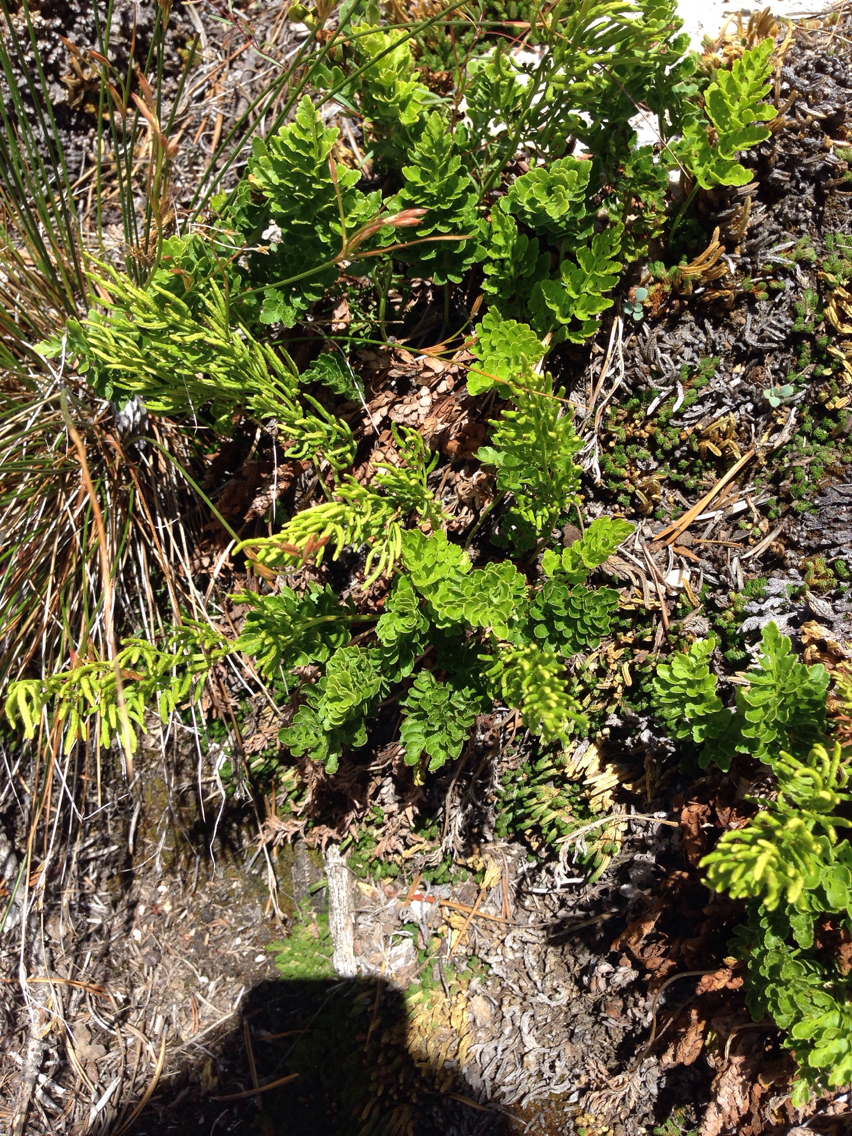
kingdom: Plantae
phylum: Tracheophyta
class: Polypodiopsida
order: Polypodiales
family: Pteridaceae
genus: Cryptogramma
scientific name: Cryptogramma acrostichoides
